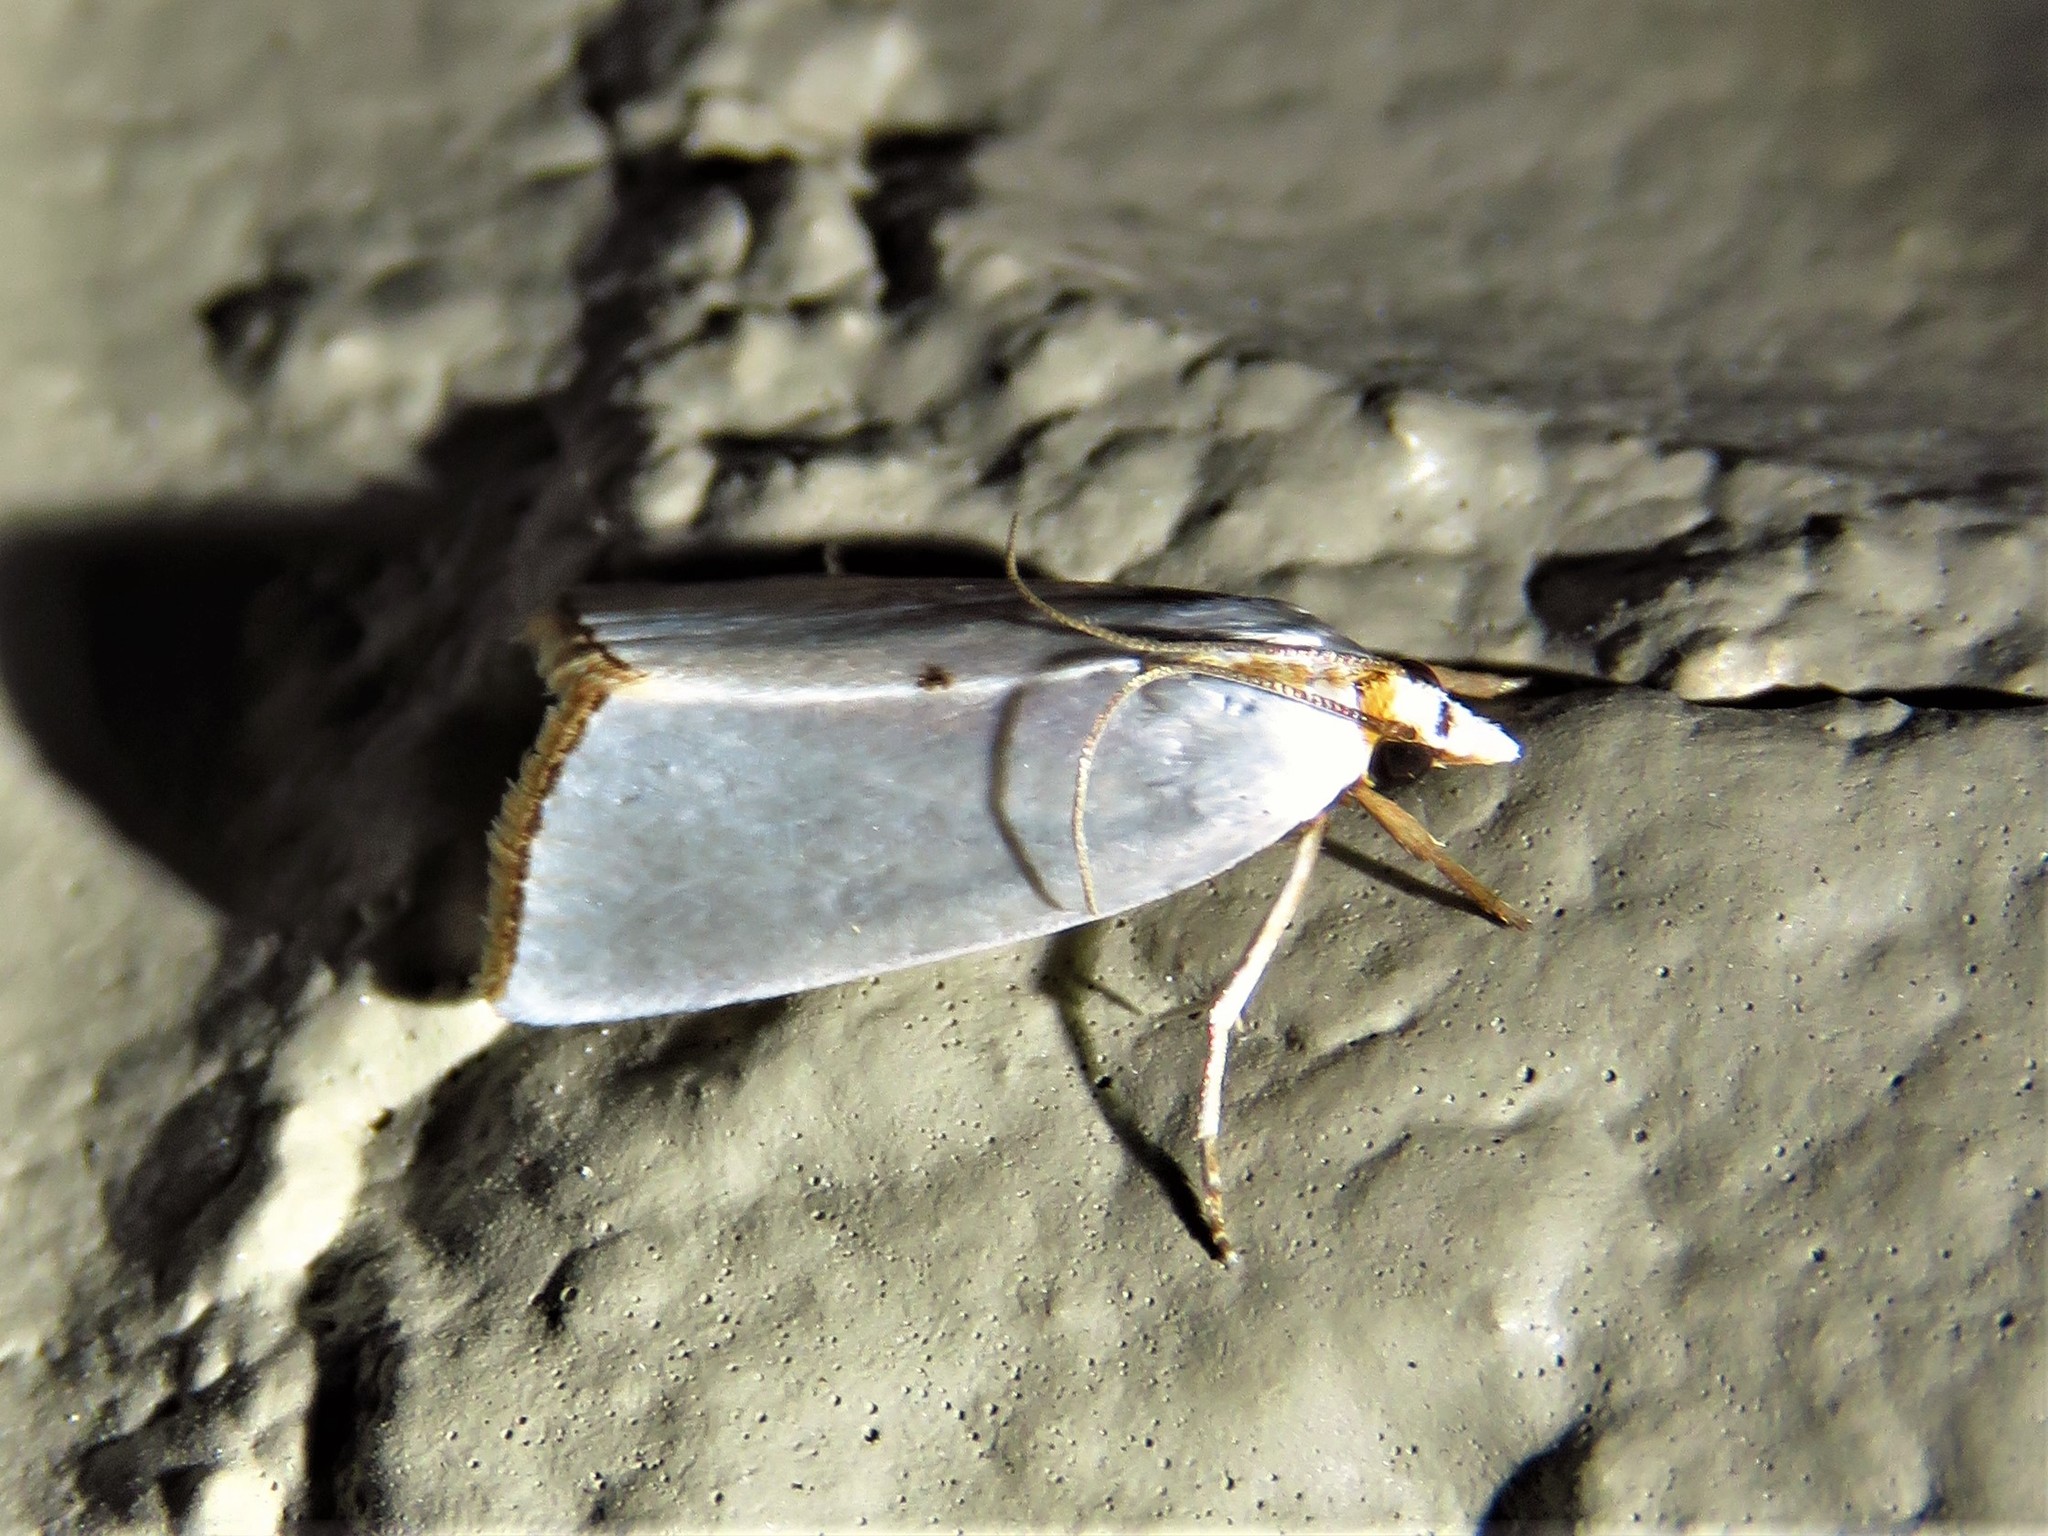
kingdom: Animalia
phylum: Arthropoda
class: Insecta
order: Lepidoptera
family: Crambidae
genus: Argyria
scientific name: Argyria nivalis
